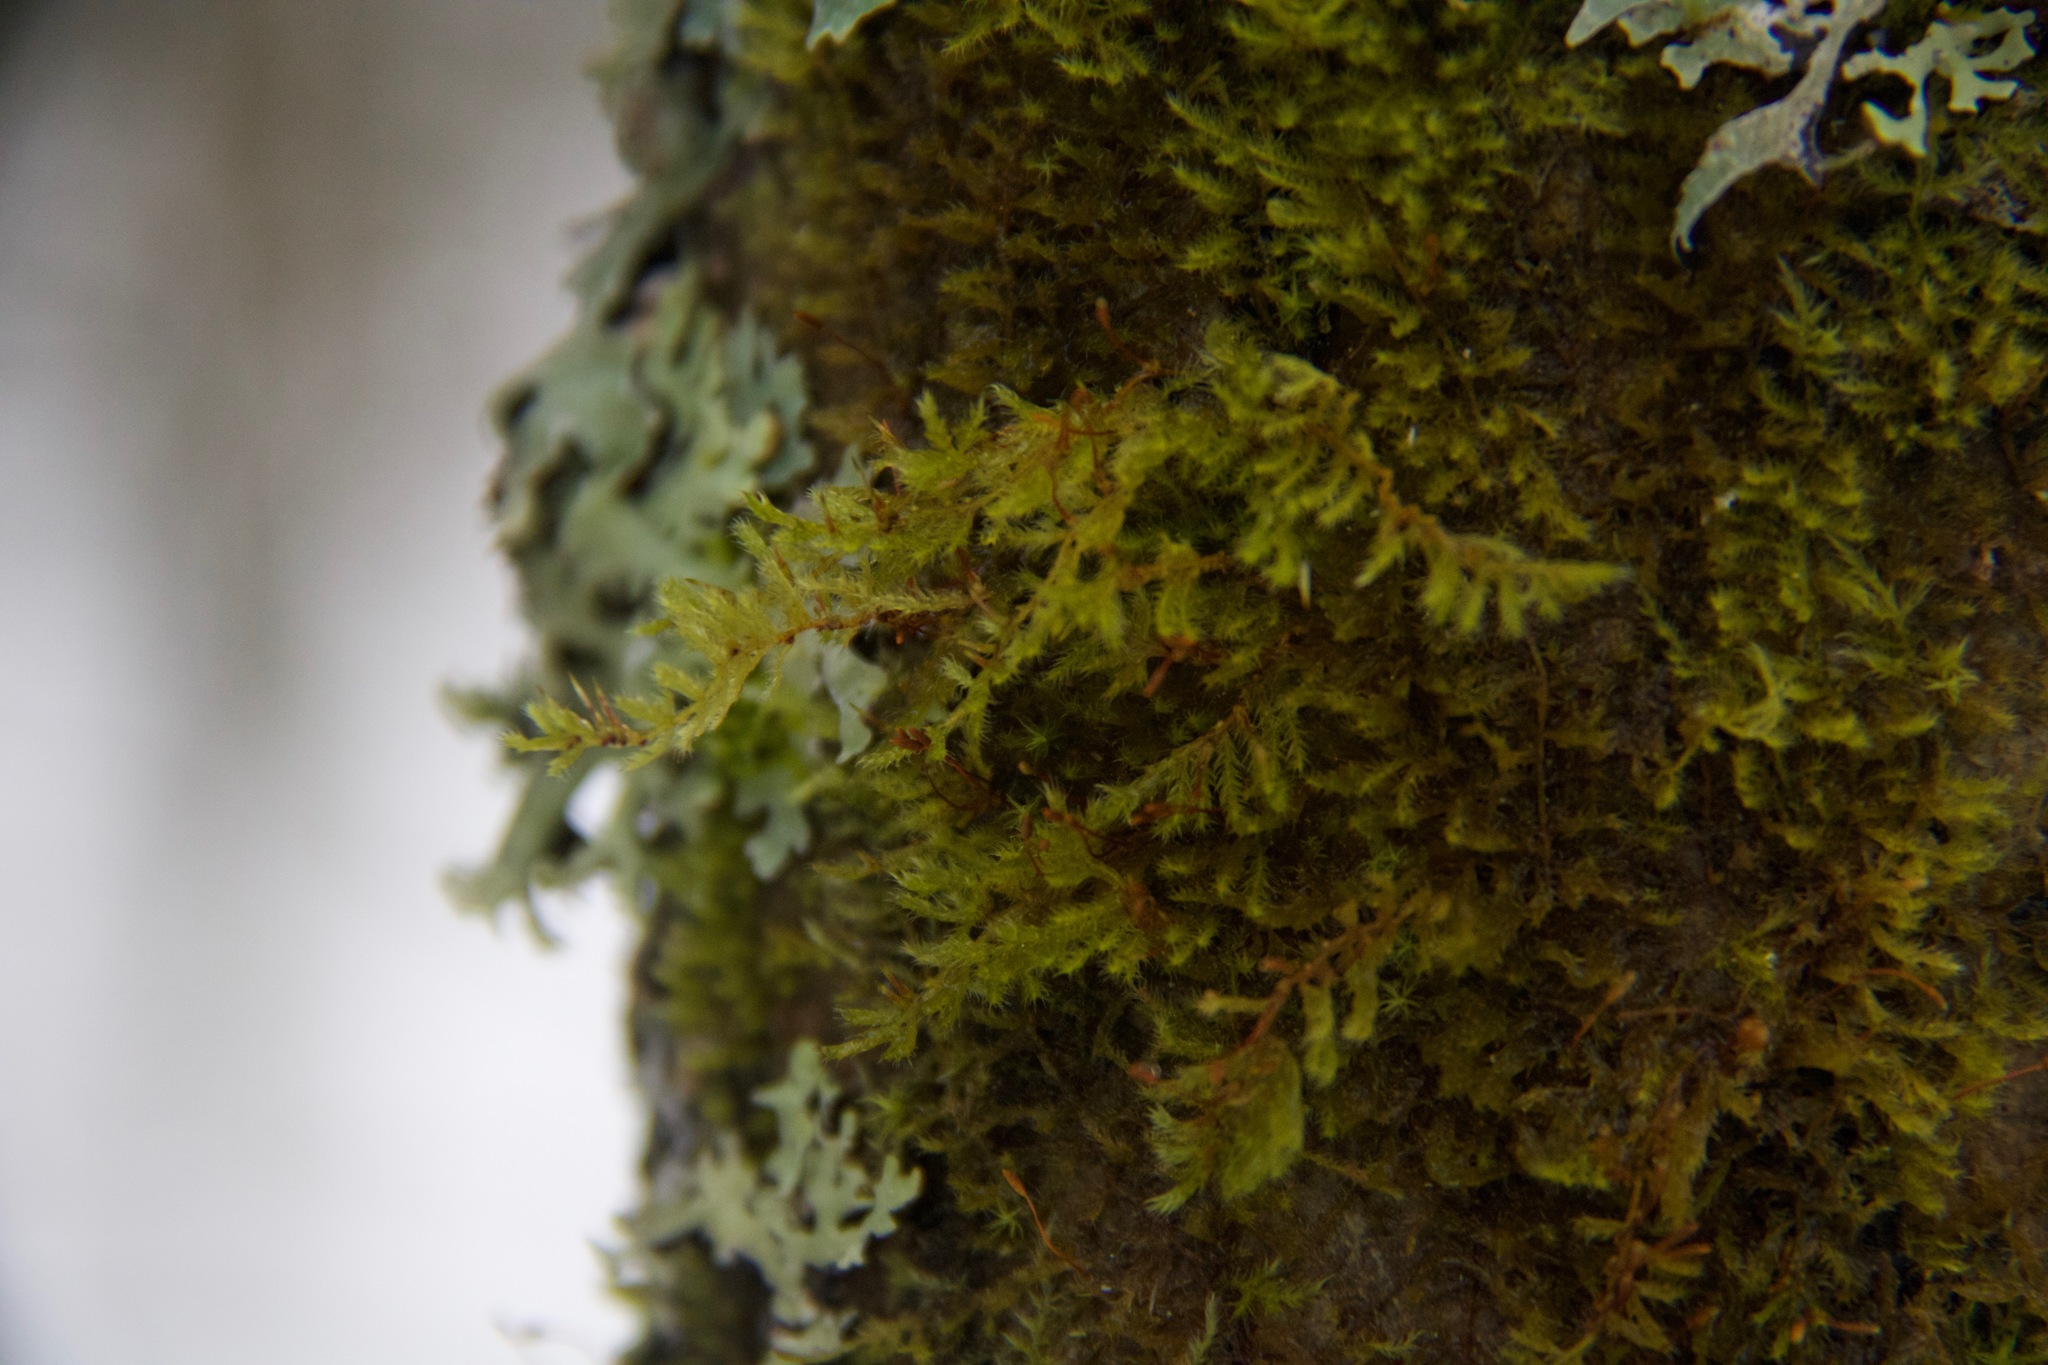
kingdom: Plantae
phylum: Bryophyta
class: Bryopsida
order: Hypnales
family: Pylaisiaceae
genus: Pylaisia
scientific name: Pylaisia polyantha
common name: Many-flowered leskea
